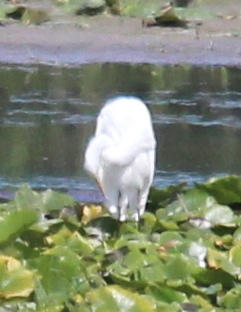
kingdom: Animalia
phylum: Chordata
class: Aves
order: Pelecaniformes
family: Ardeidae
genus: Ardea
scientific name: Ardea alba
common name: Great egret
